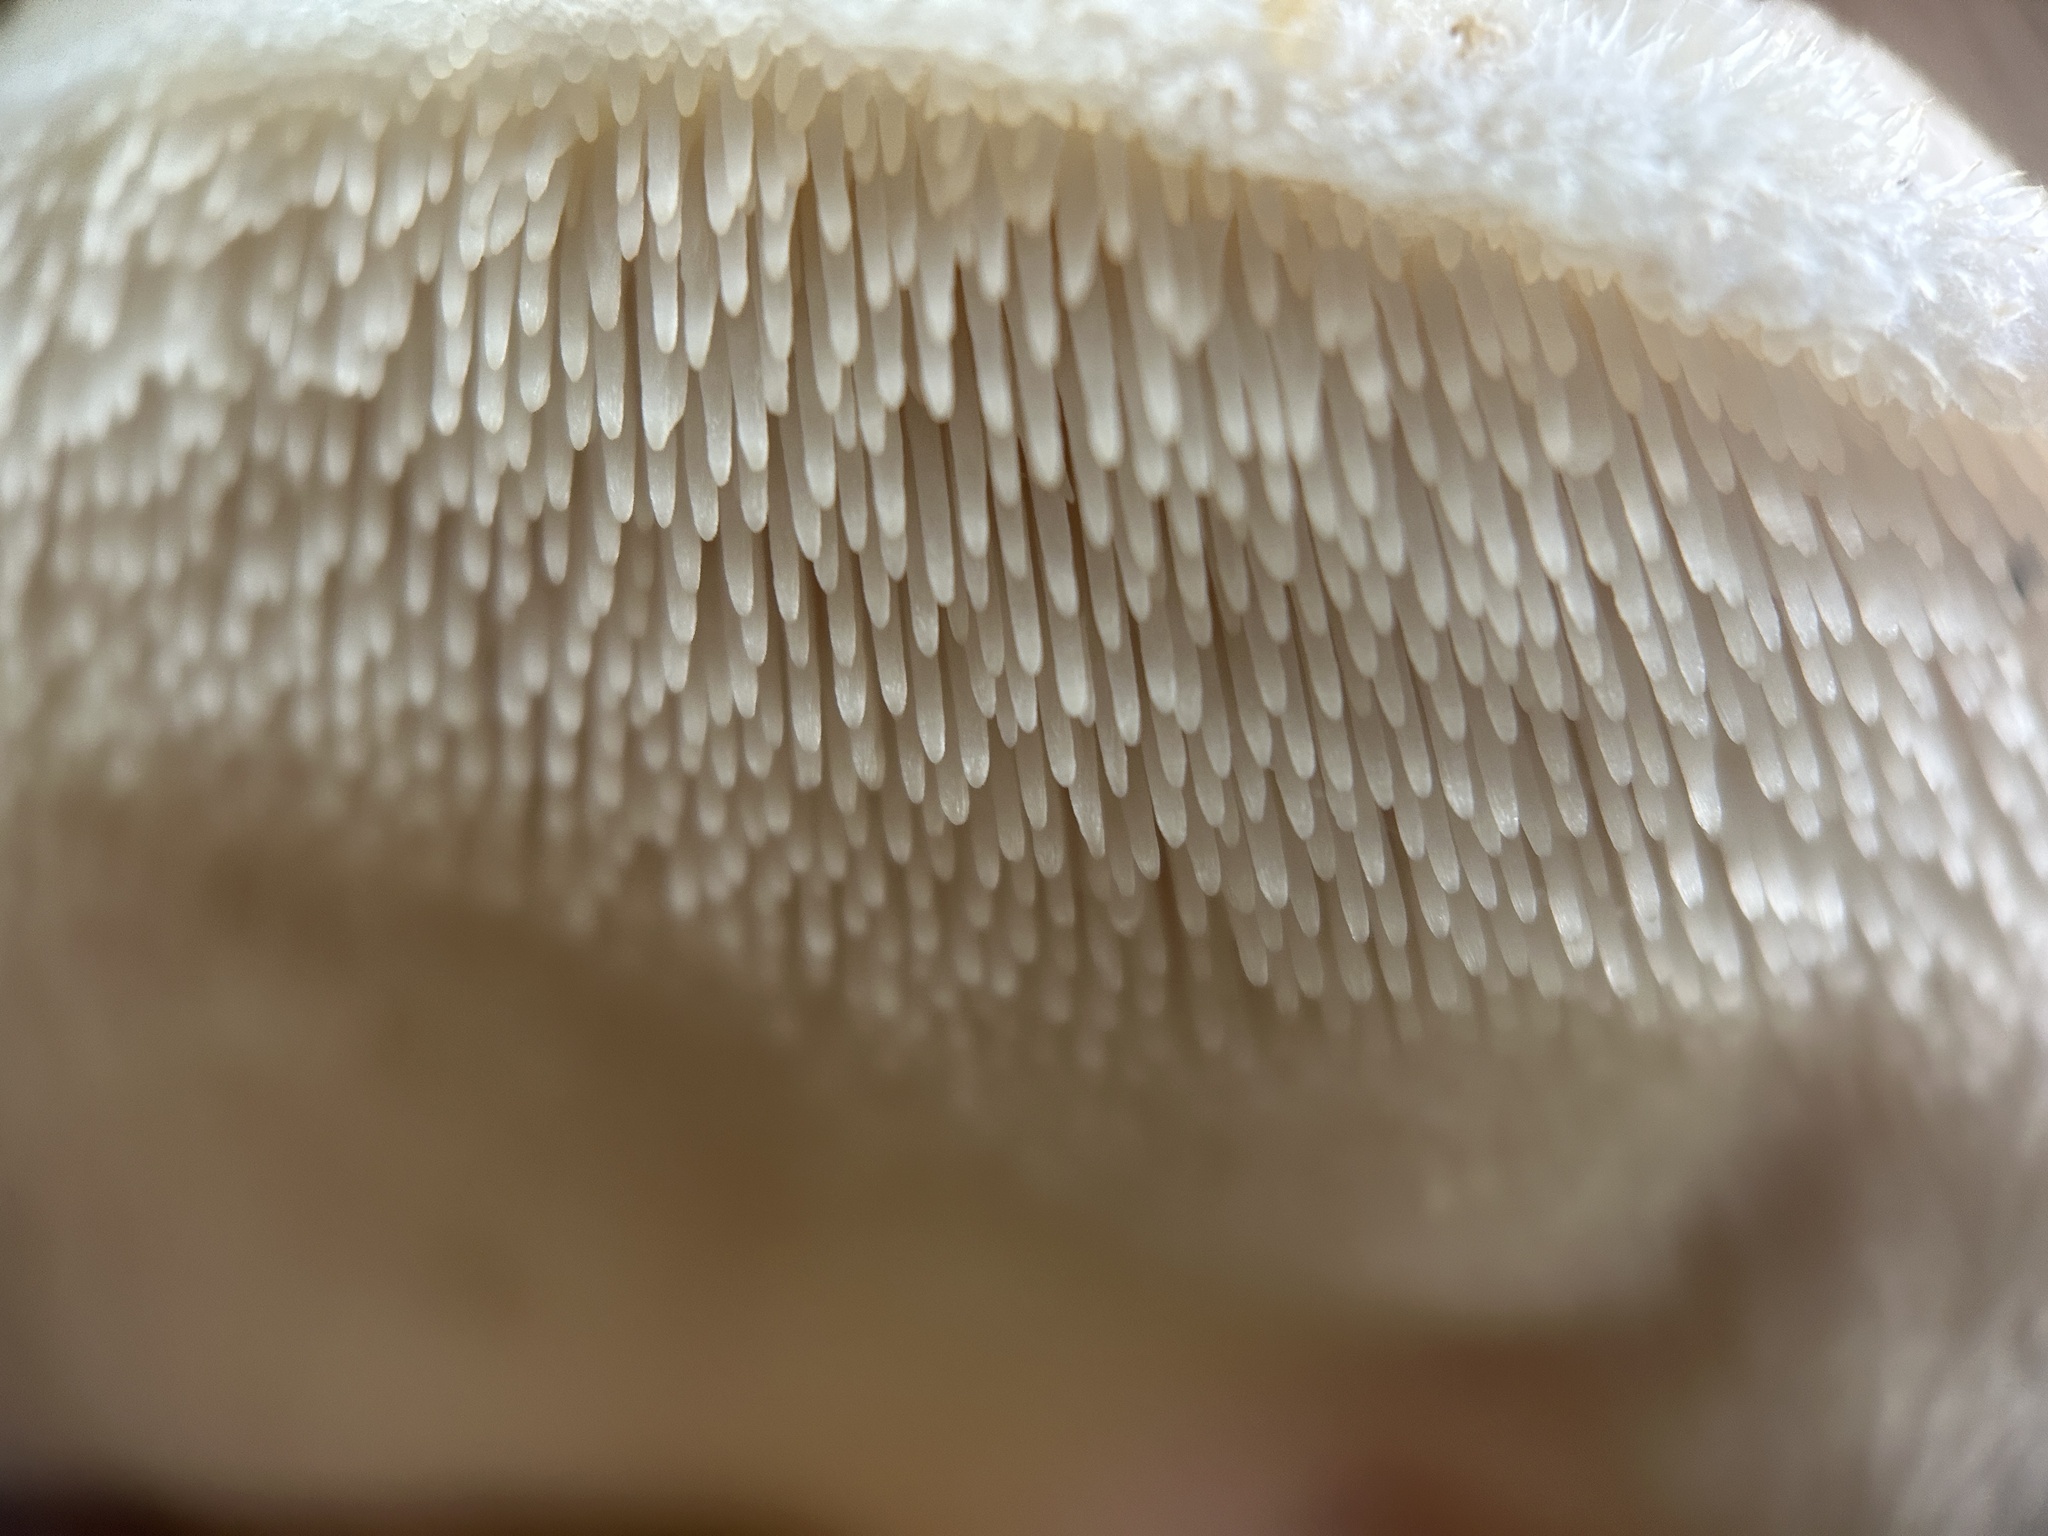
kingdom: Fungi
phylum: Basidiomycota
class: Agaricomycetes
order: Polyporales
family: Meruliaceae
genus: Climacodon
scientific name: Climacodon septentrionalis
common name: Northern tooth
